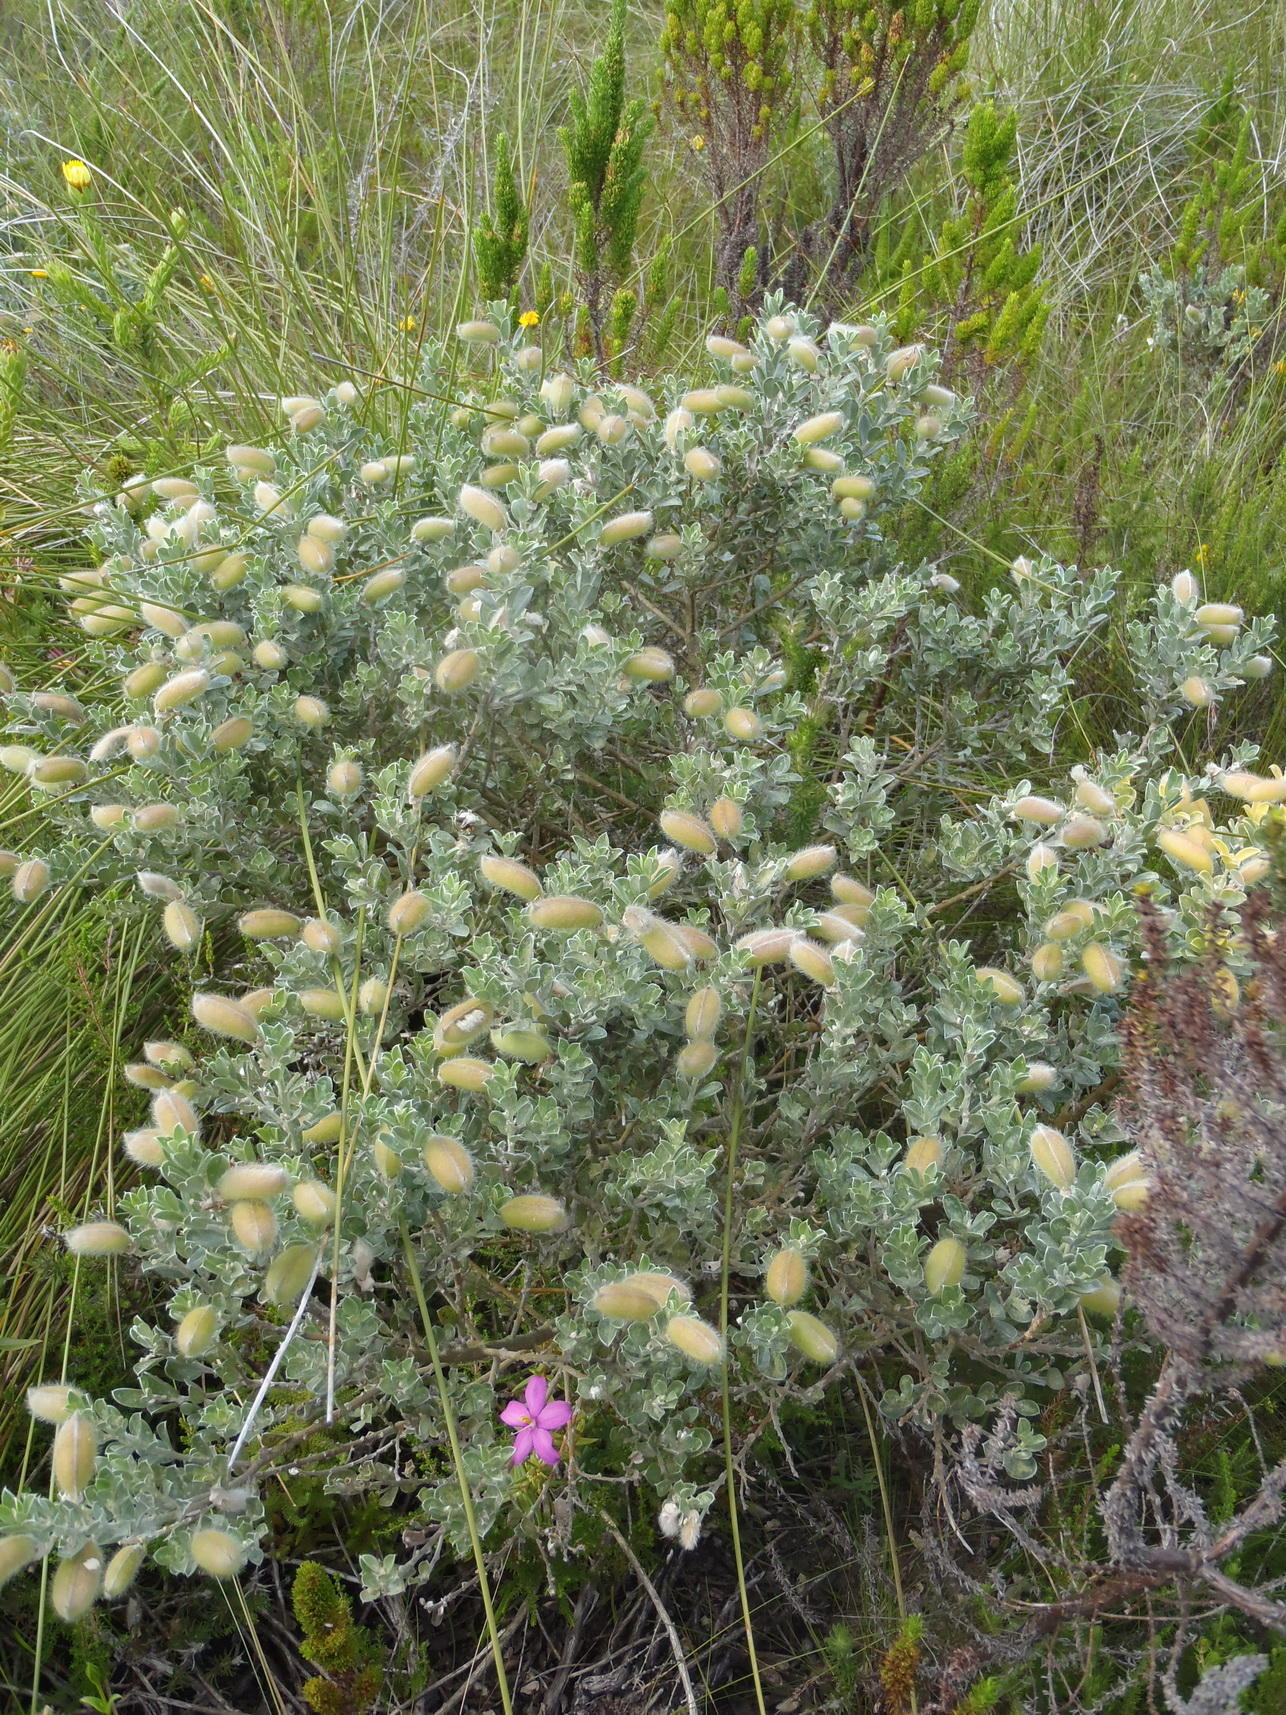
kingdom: Plantae
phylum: Tracheophyta
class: Magnoliopsida
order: Fabales
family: Fabaceae
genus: Podalyria
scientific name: Podalyria myrtillifolia
